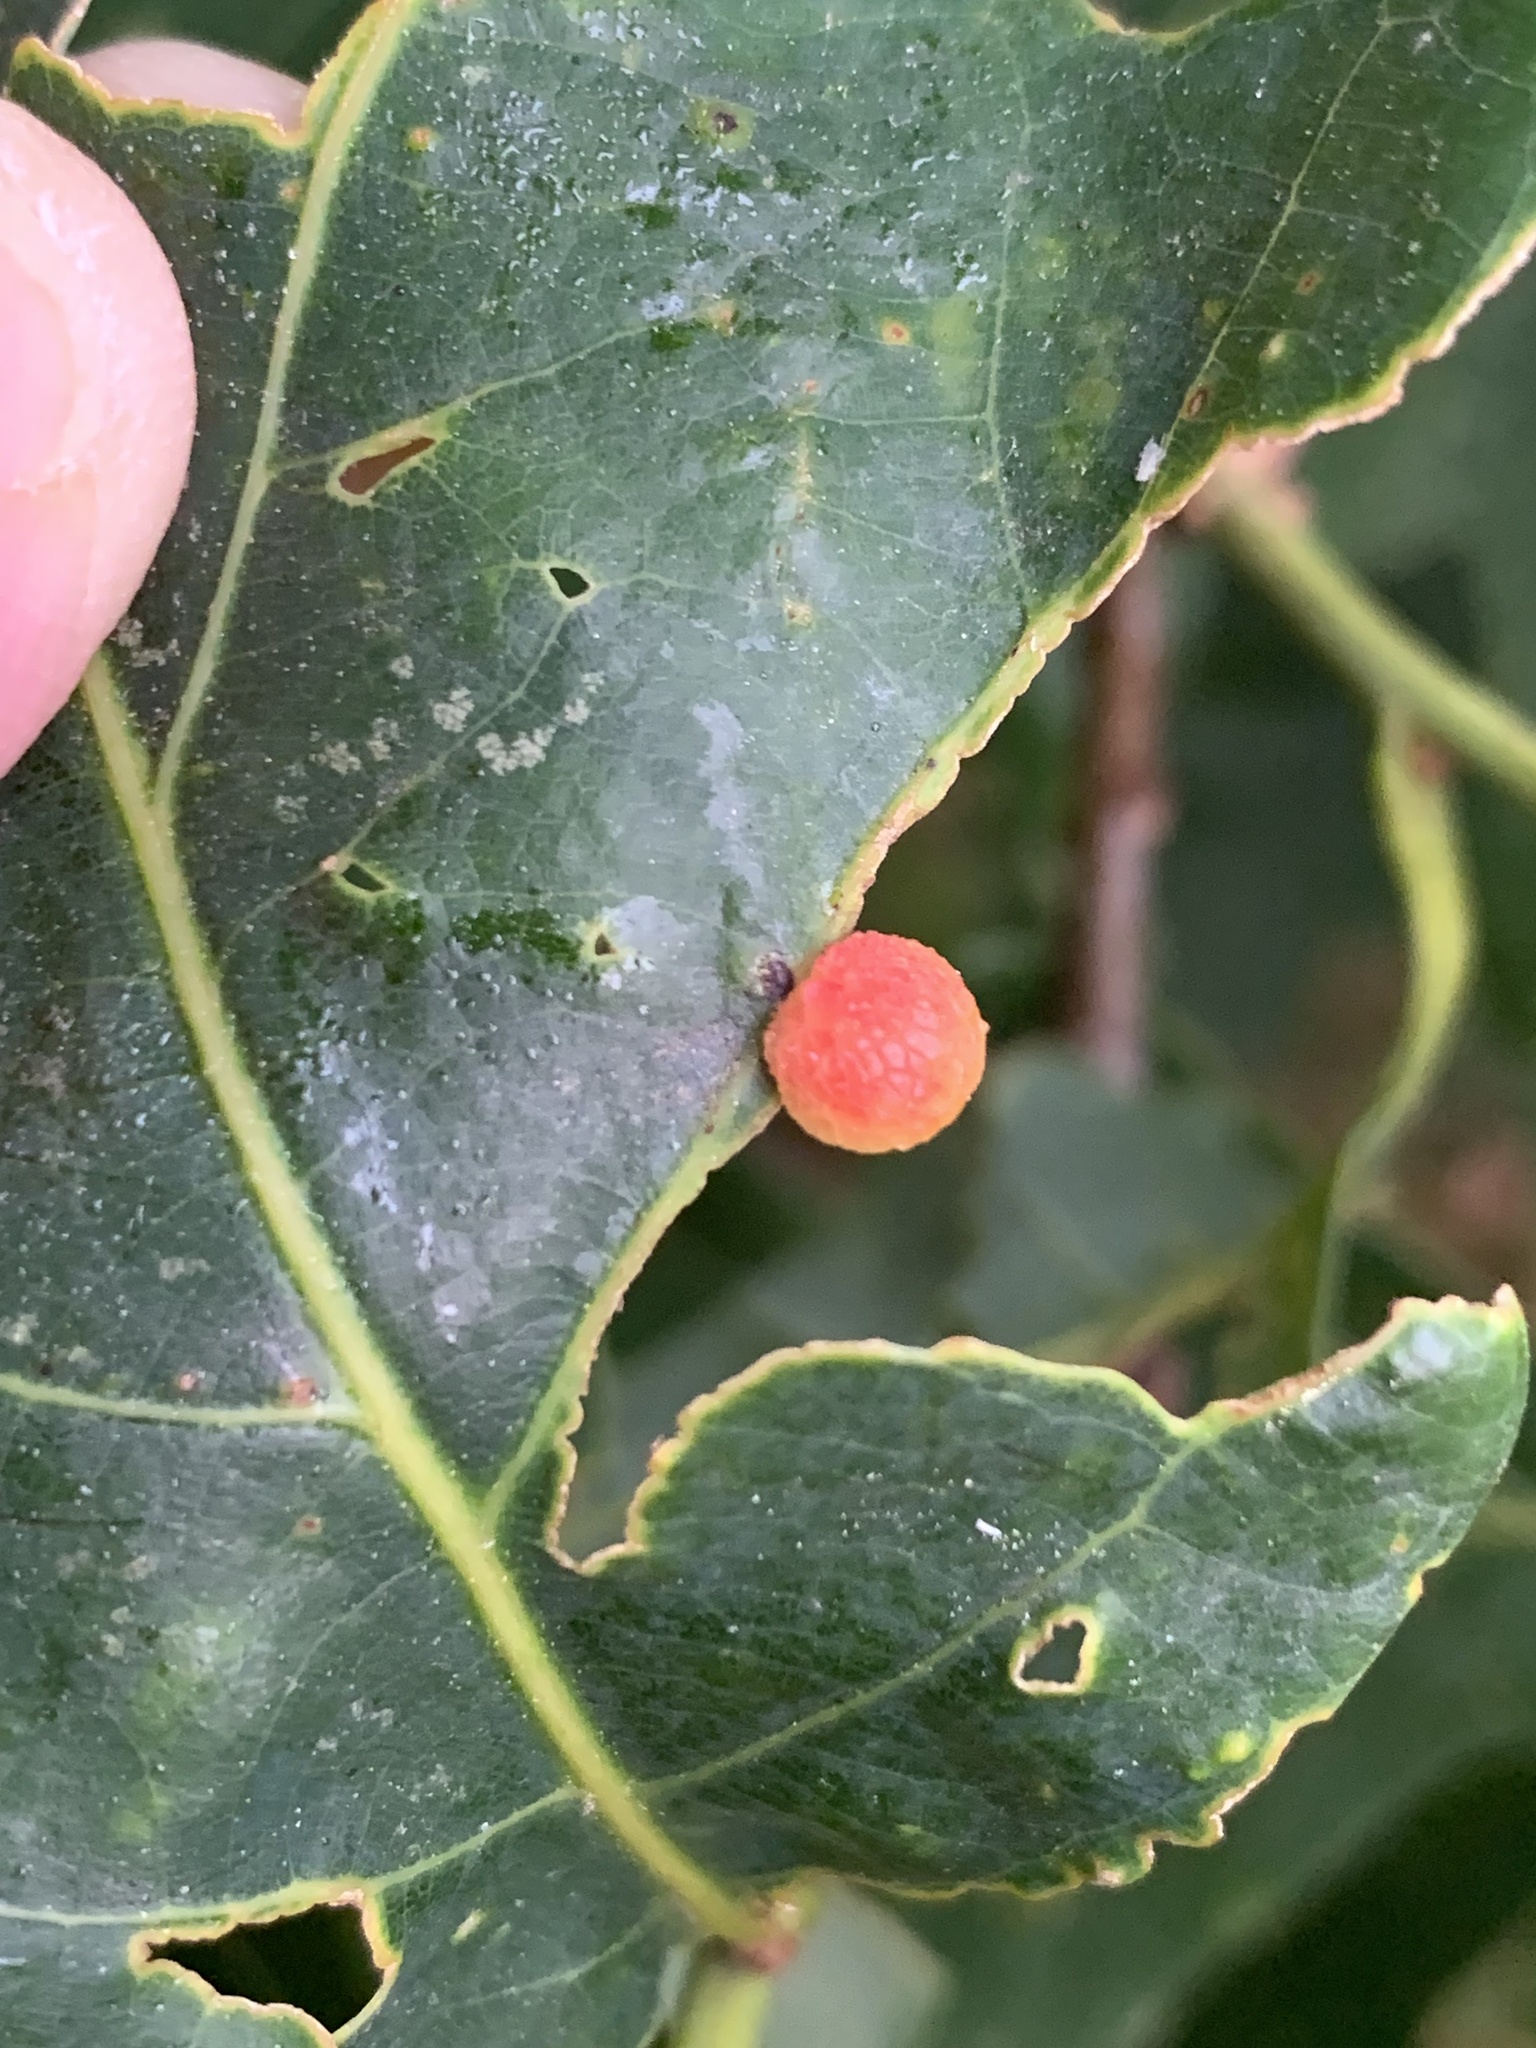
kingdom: Animalia
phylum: Arthropoda
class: Insecta
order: Hymenoptera
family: Cynipidae
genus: Acraspis
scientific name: Acraspis
